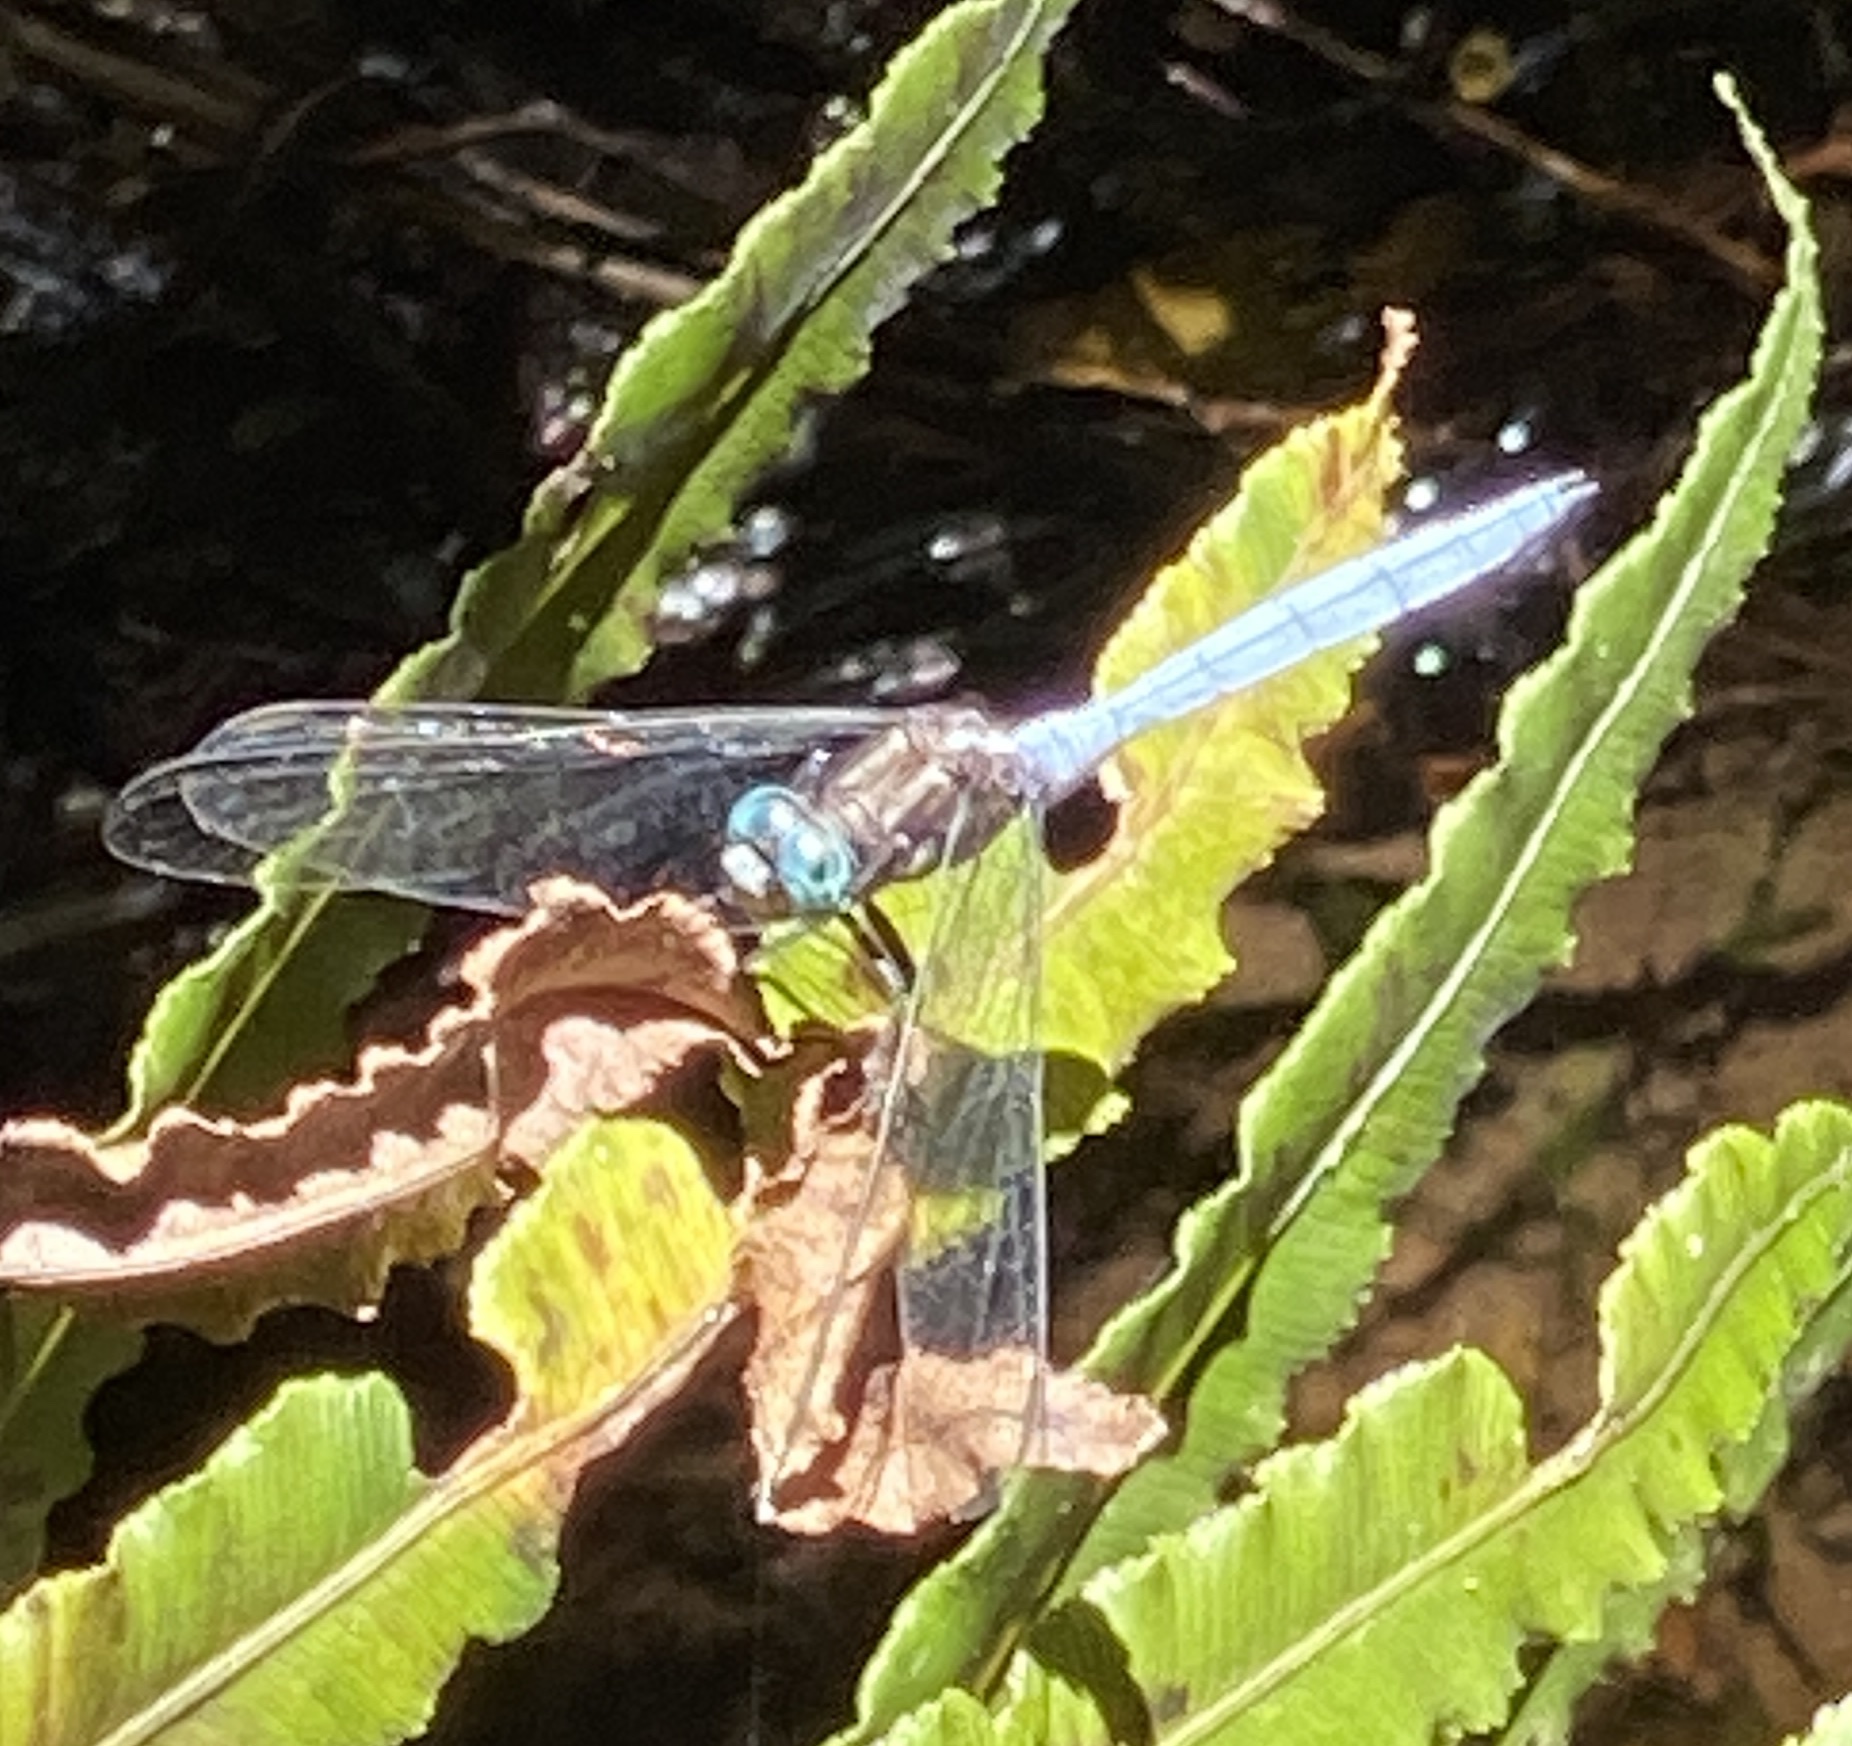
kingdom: Animalia
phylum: Arthropoda
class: Insecta
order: Odonata
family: Libellulidae
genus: Orthetrum
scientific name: Orthetrum julia
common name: Julia skimmer
